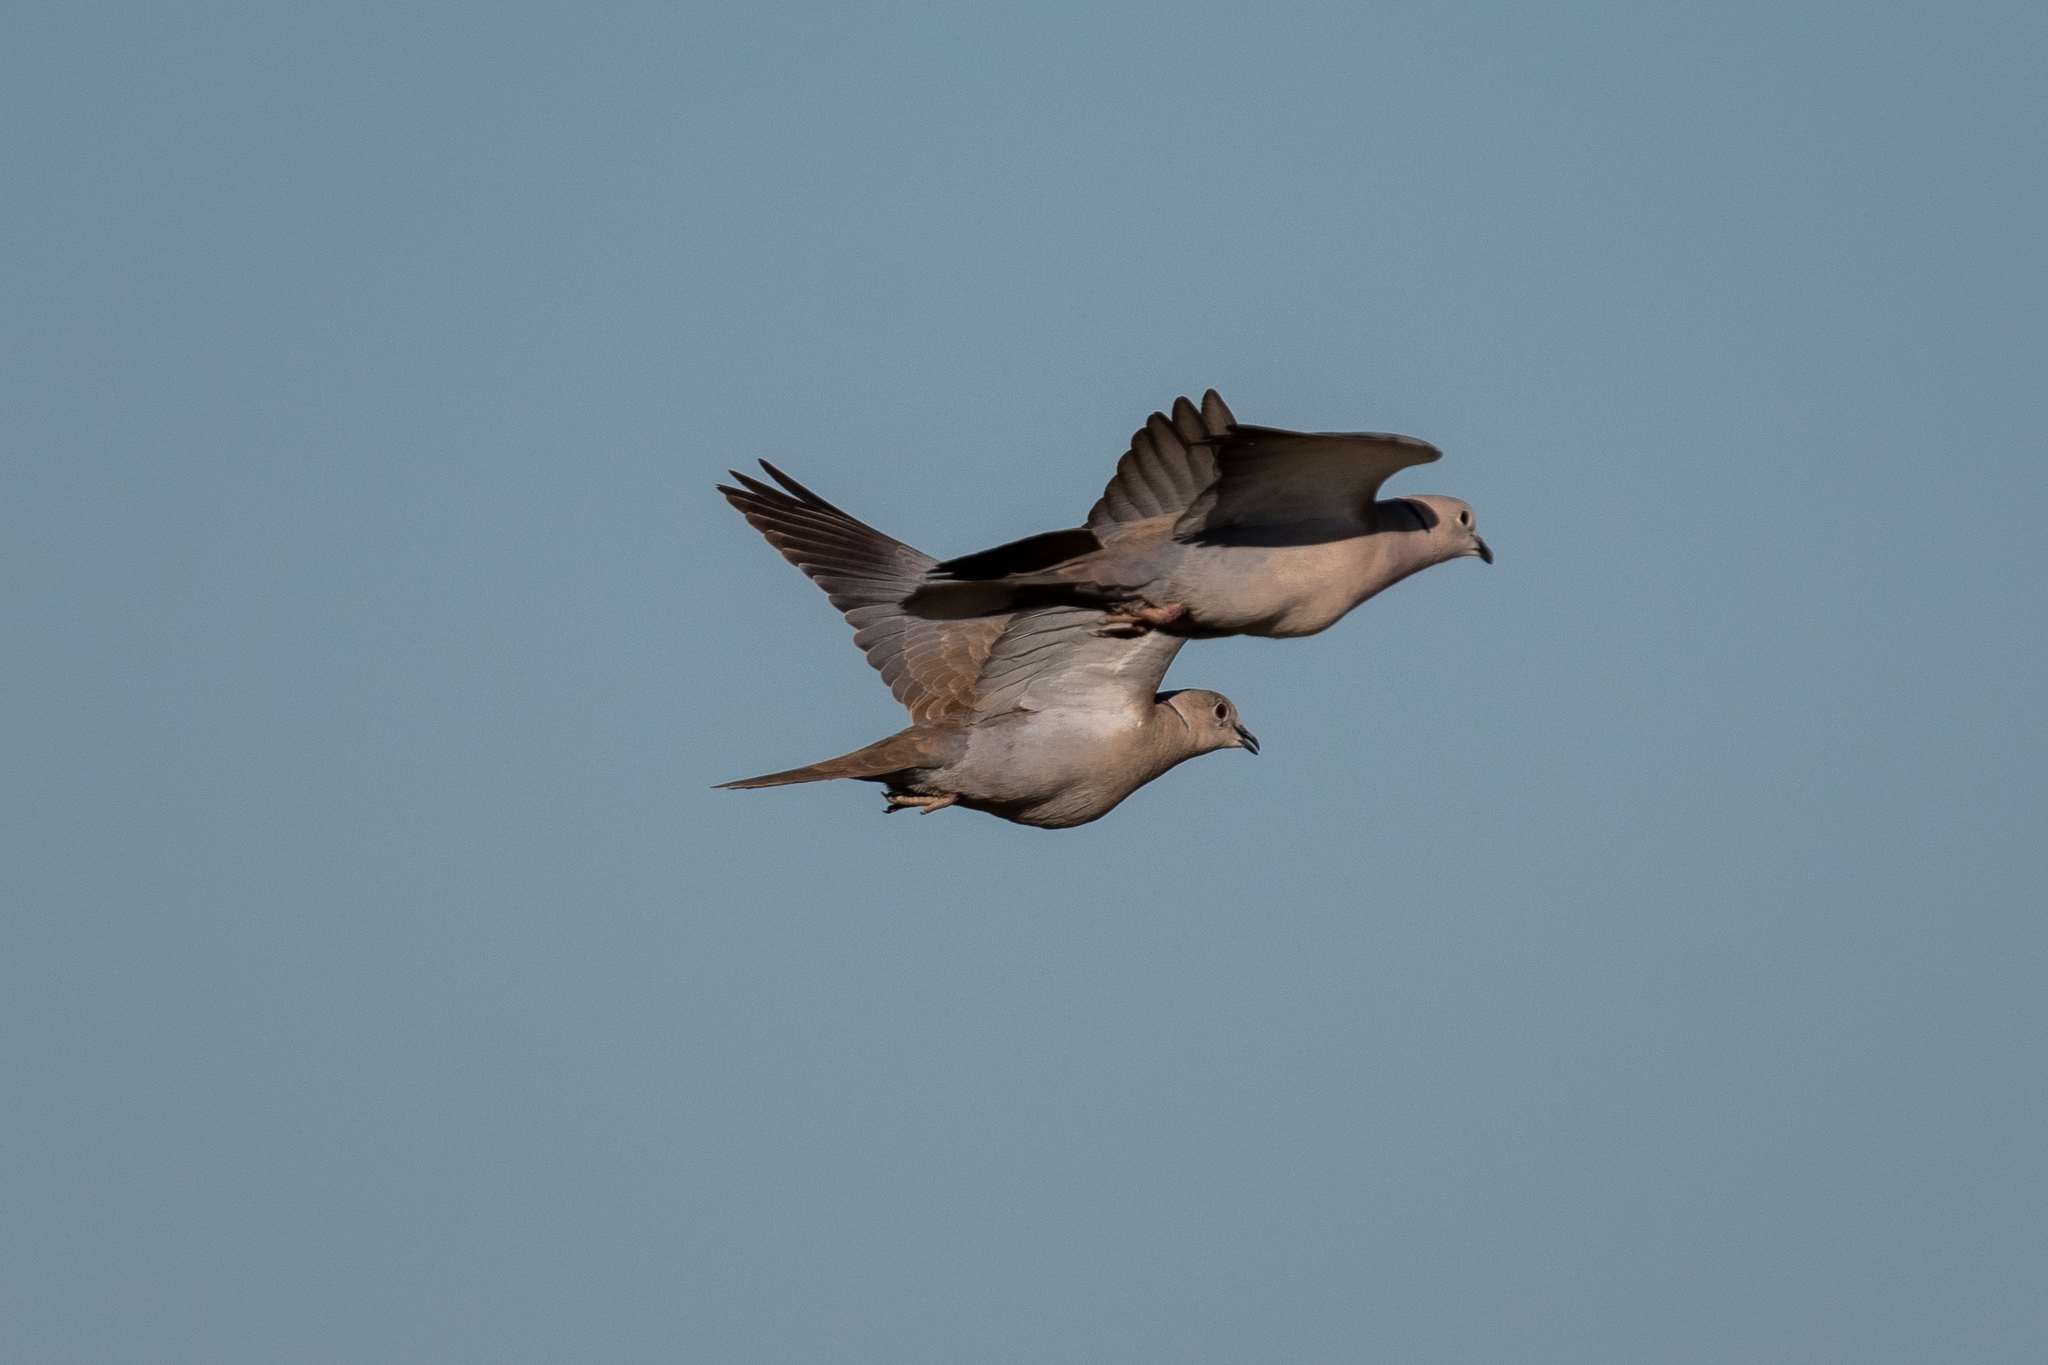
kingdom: Animalia
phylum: Chordata
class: Aves
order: Columbiformes
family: Columbidae
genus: Streptopelia
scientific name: Streptopelia decaocto
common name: Eurasian collared dove
